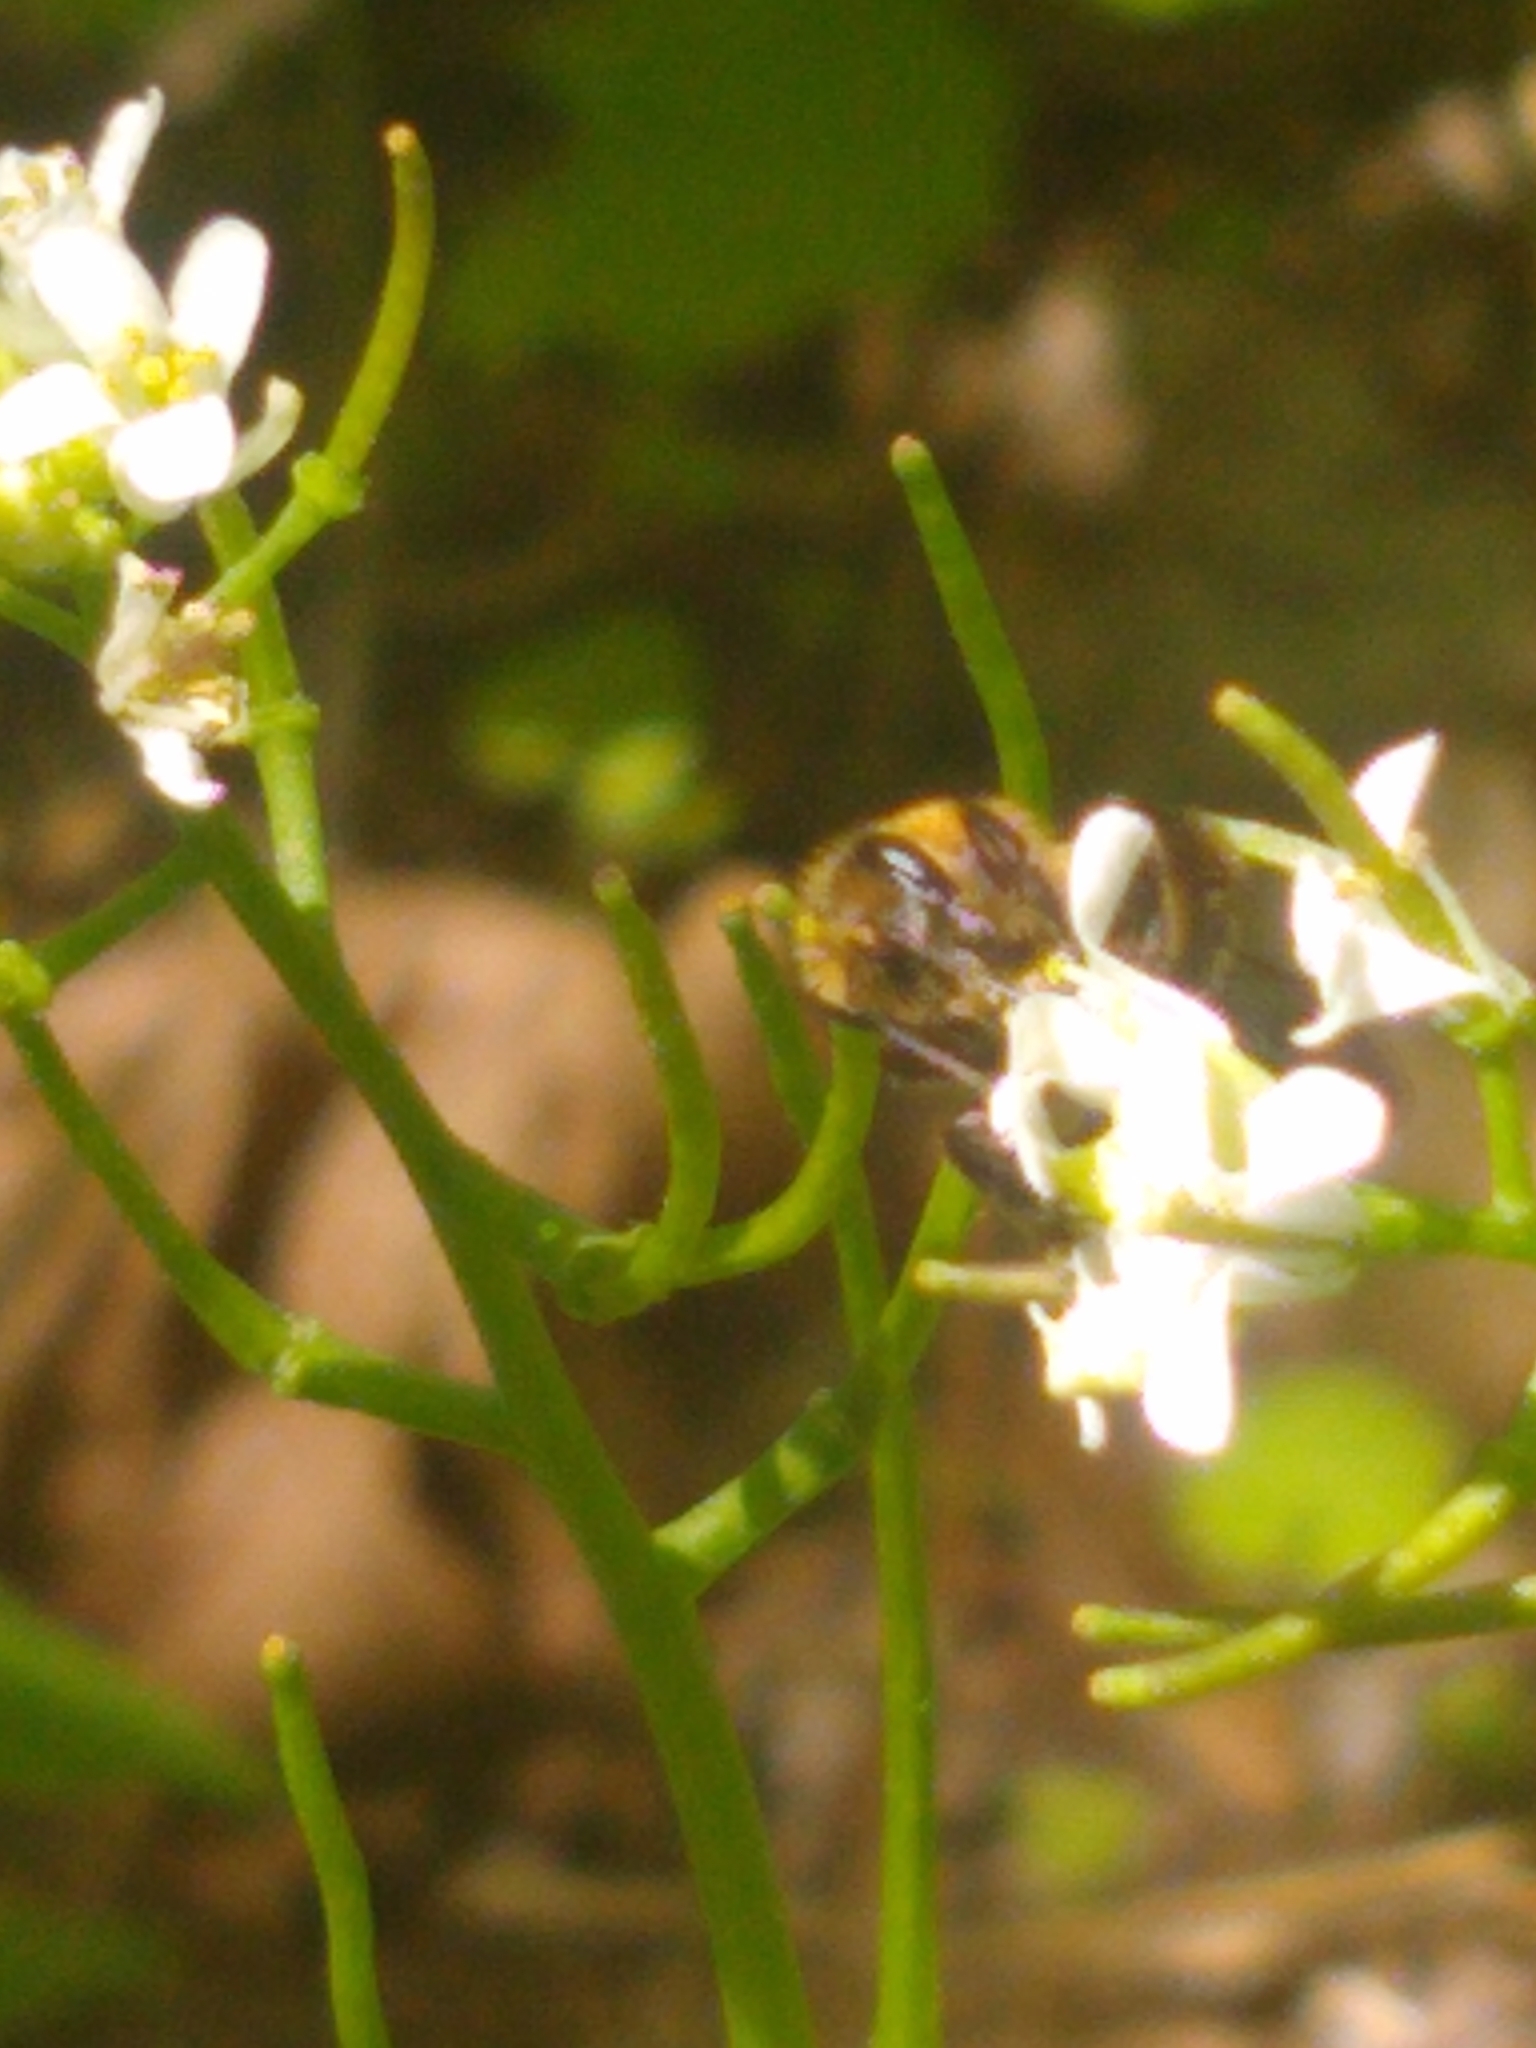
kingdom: Animalia
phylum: Arthropoda
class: Insecta
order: Hymenoptera
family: Apidae
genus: Apis
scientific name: Apis mellifera
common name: Honey bee
